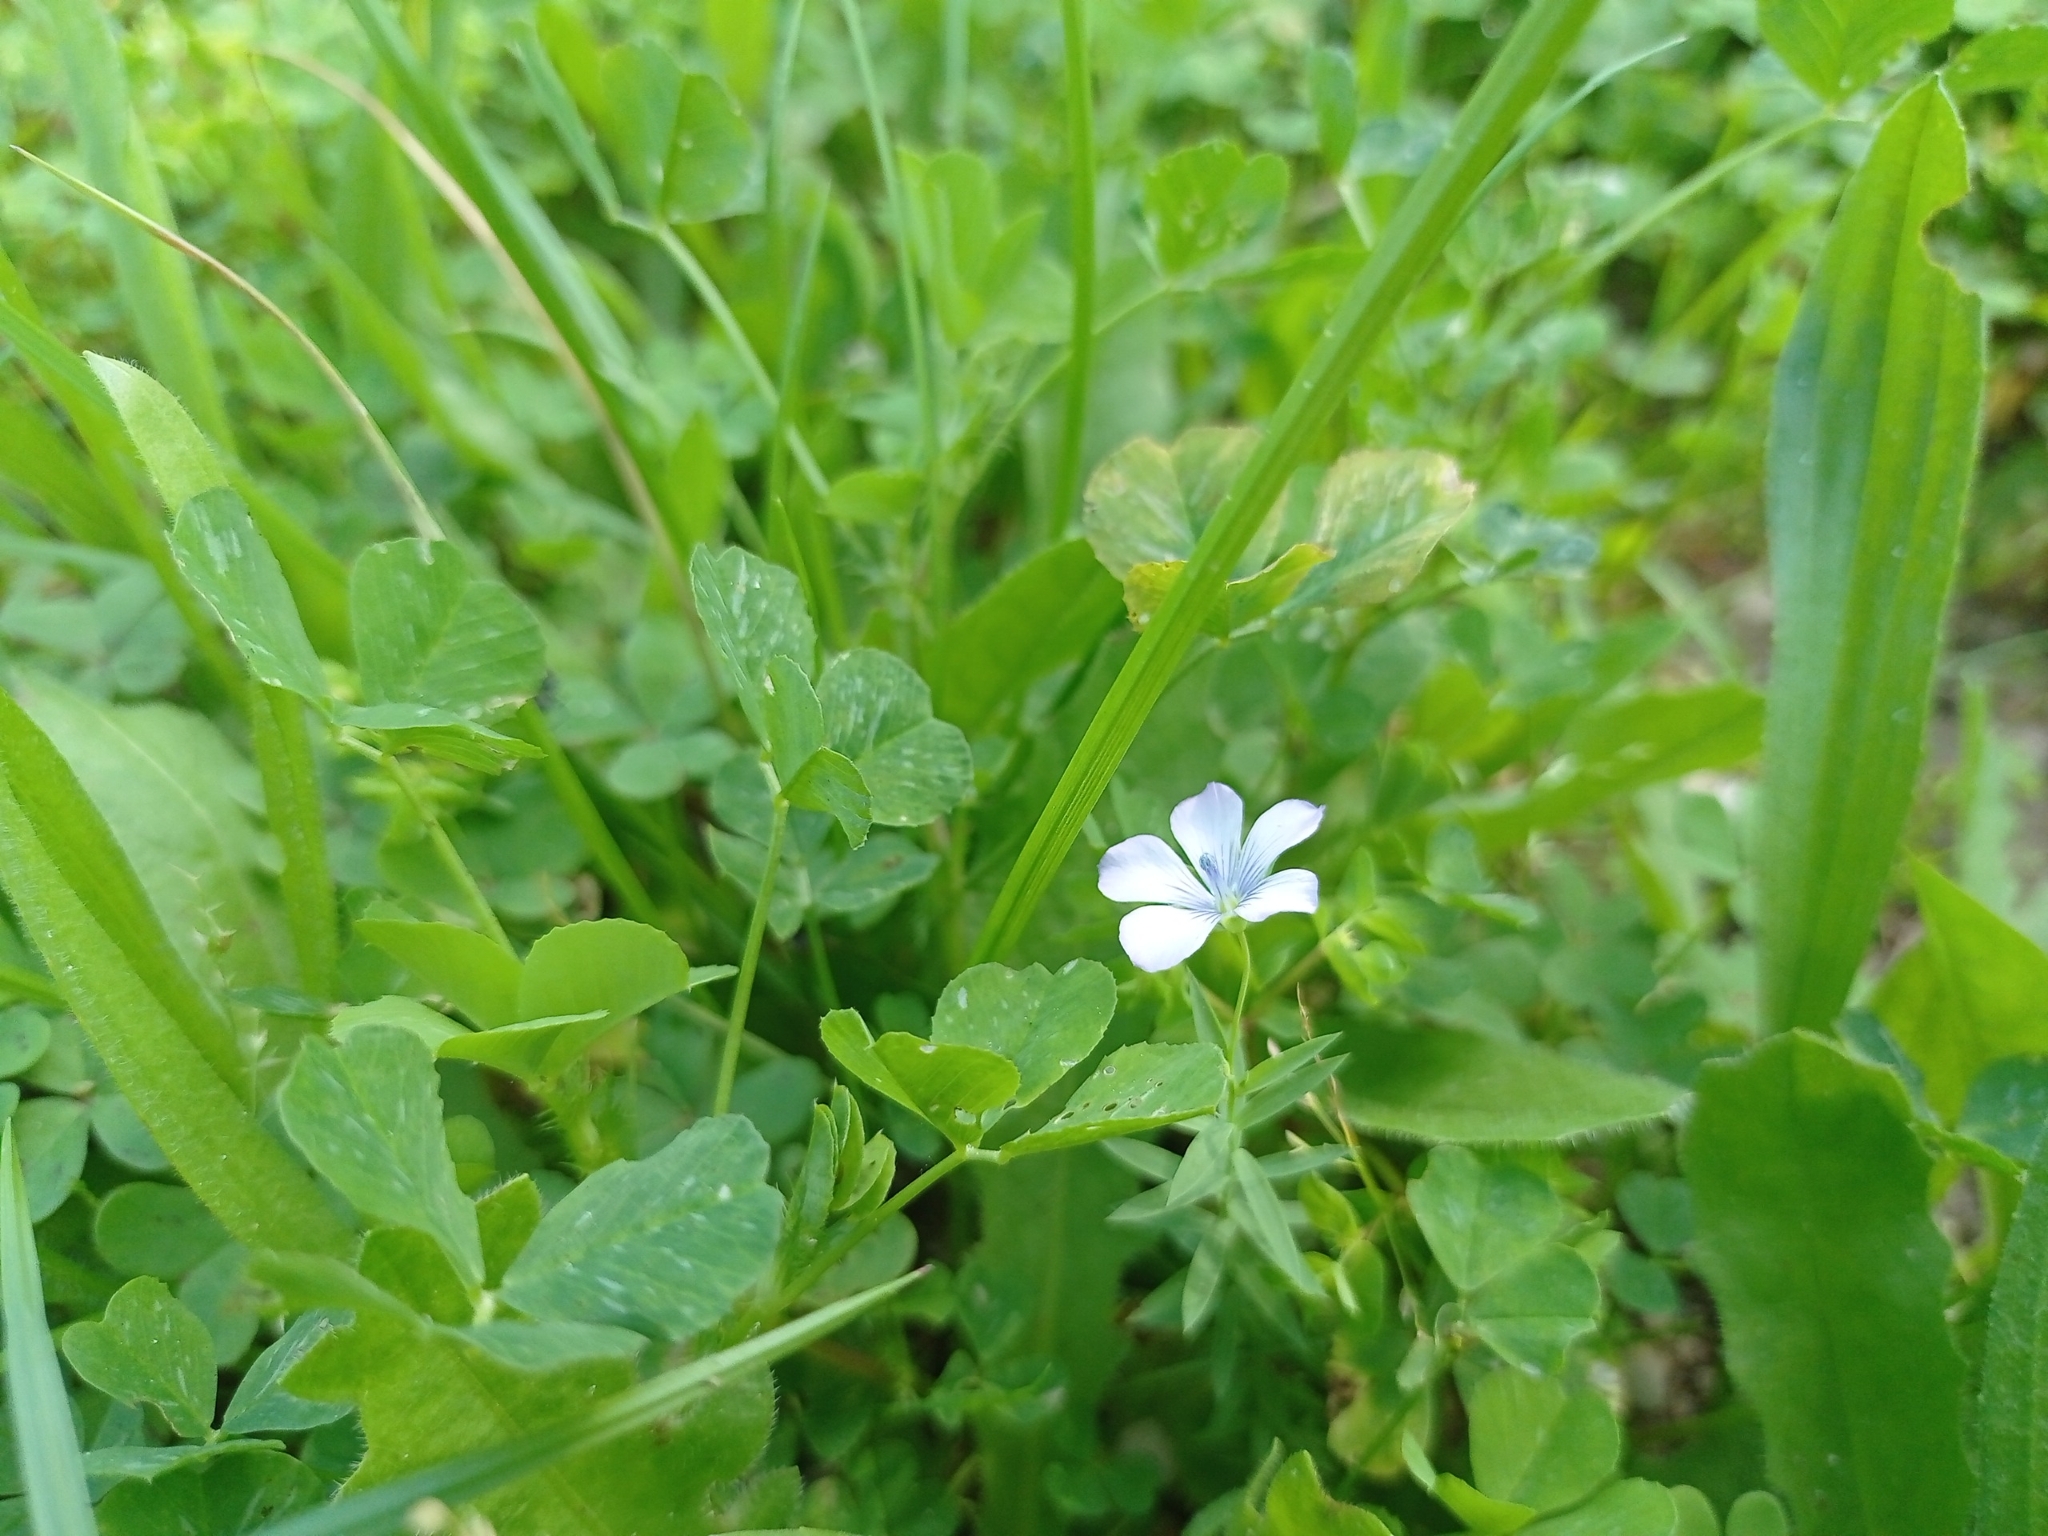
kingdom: Plantae
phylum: Tracheophyta
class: Magnoliopsida
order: Malpighiales
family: Linaceae
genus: Linum
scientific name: Linum bienne
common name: Pale flax
